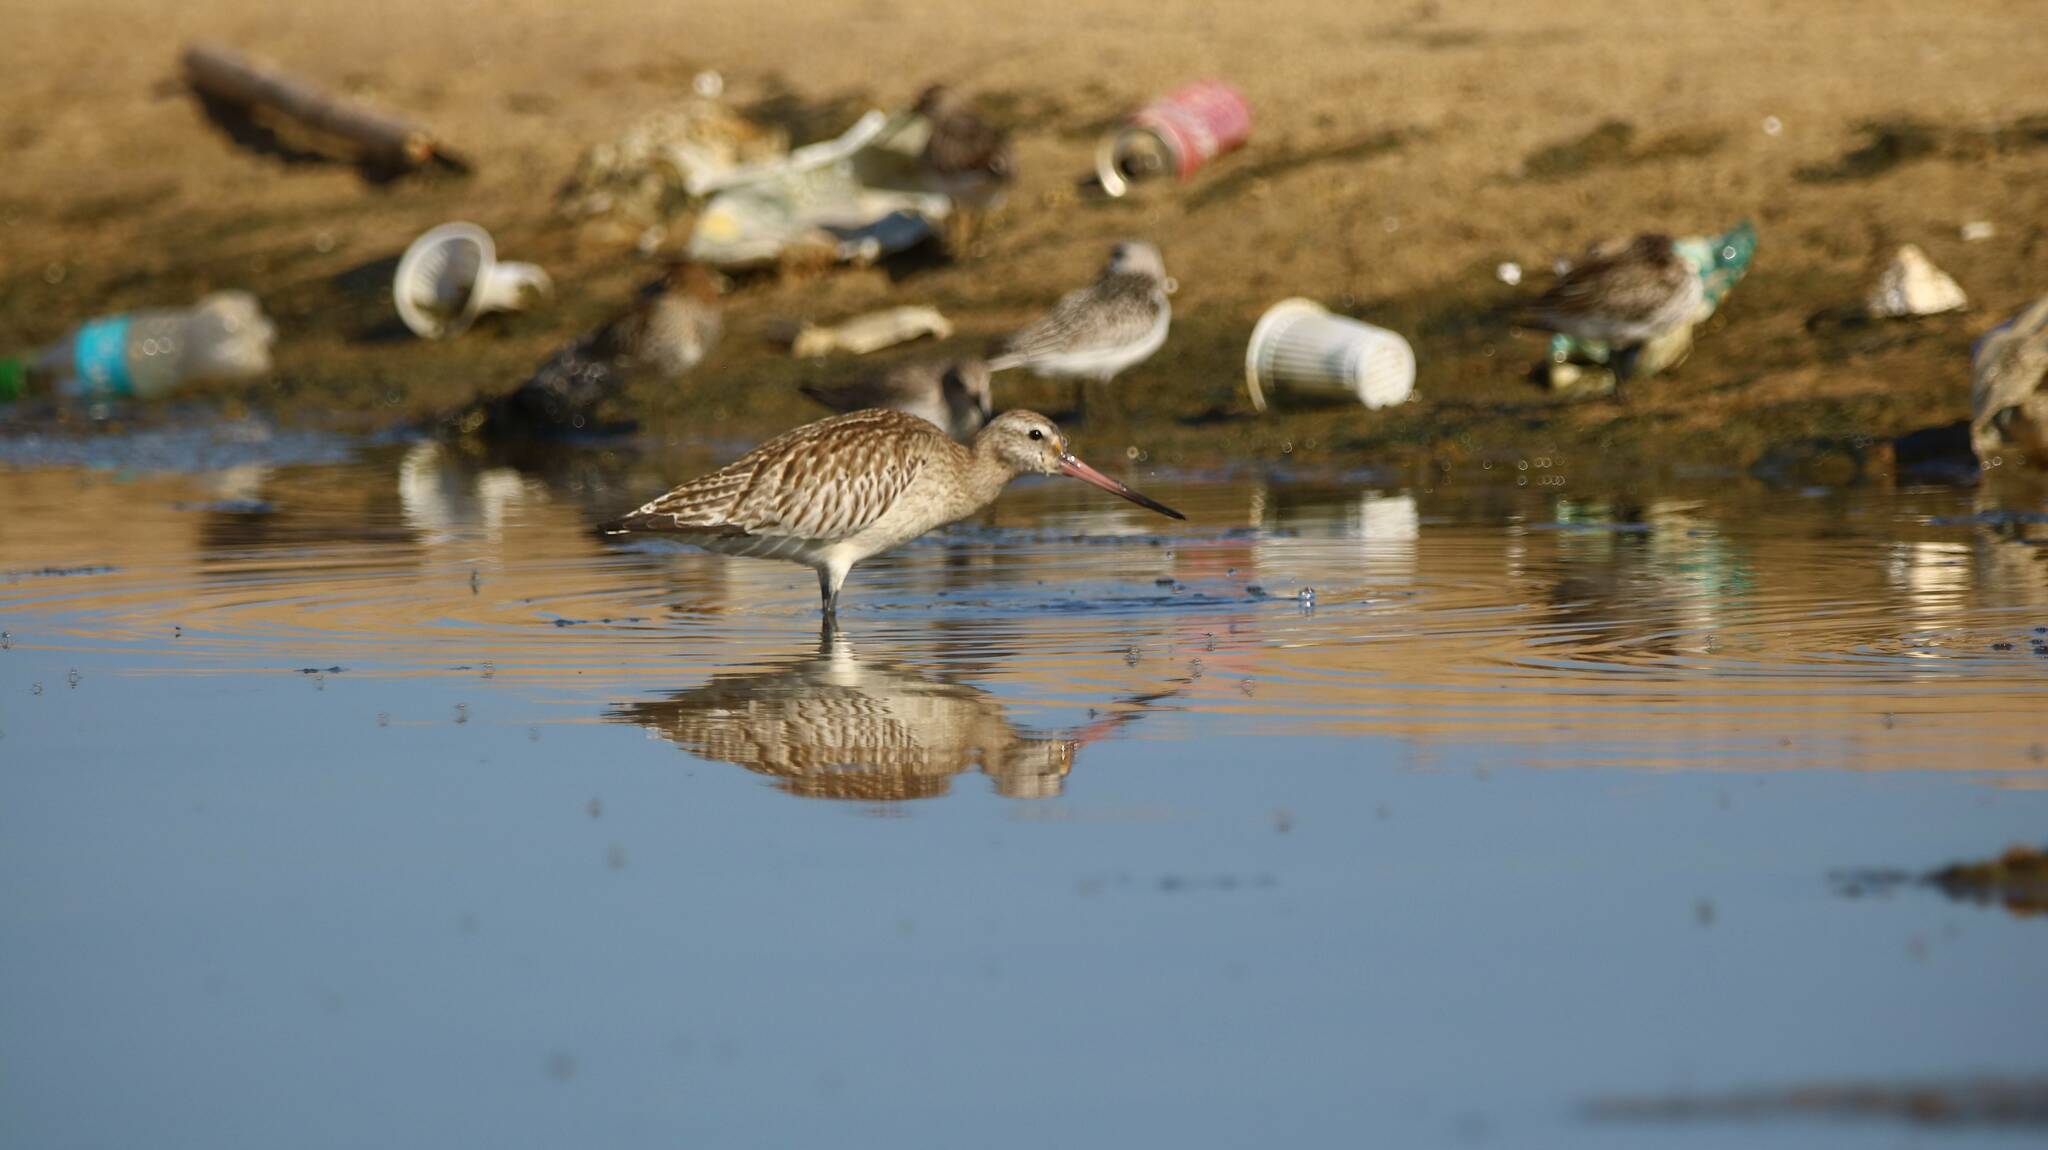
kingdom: Animalia
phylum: Chordata
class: Aves
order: Charadriiformes
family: Scolopacidae
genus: Limosa
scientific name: Limosa lapponica
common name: Bar-tailed godwit
